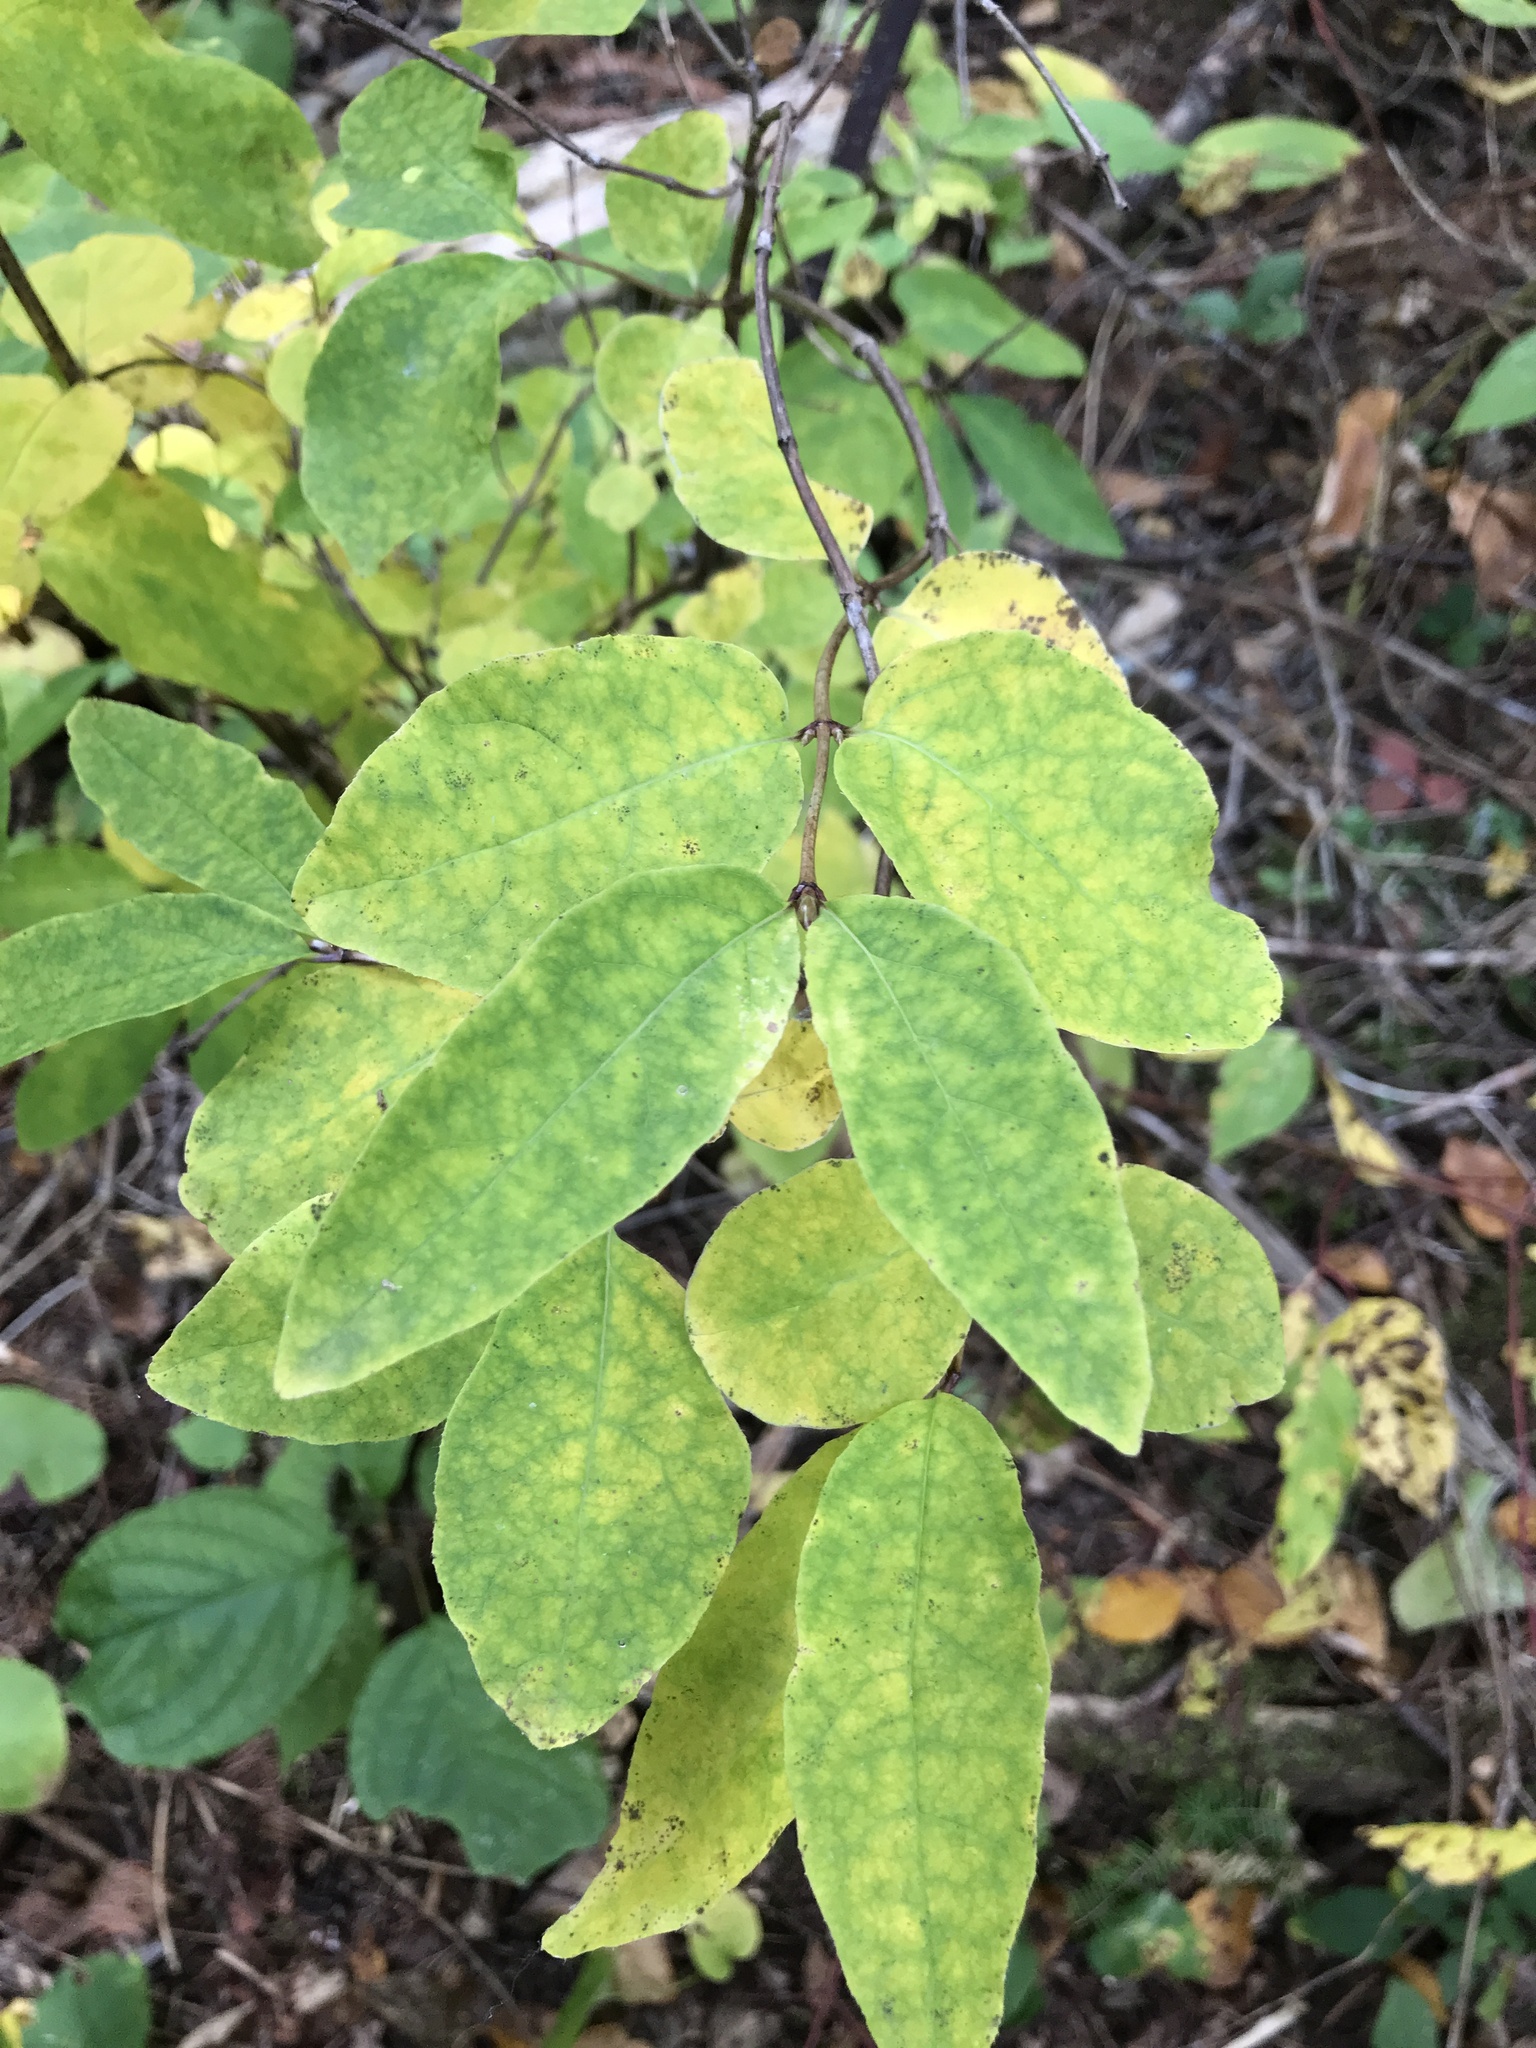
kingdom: Plantae
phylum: Tracheophyta
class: Magnoliopsida
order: Dipsacales
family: Caprifoliaceae
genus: Lonicera
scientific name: Lonicera canadensis
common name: American fly-honeysuckle
